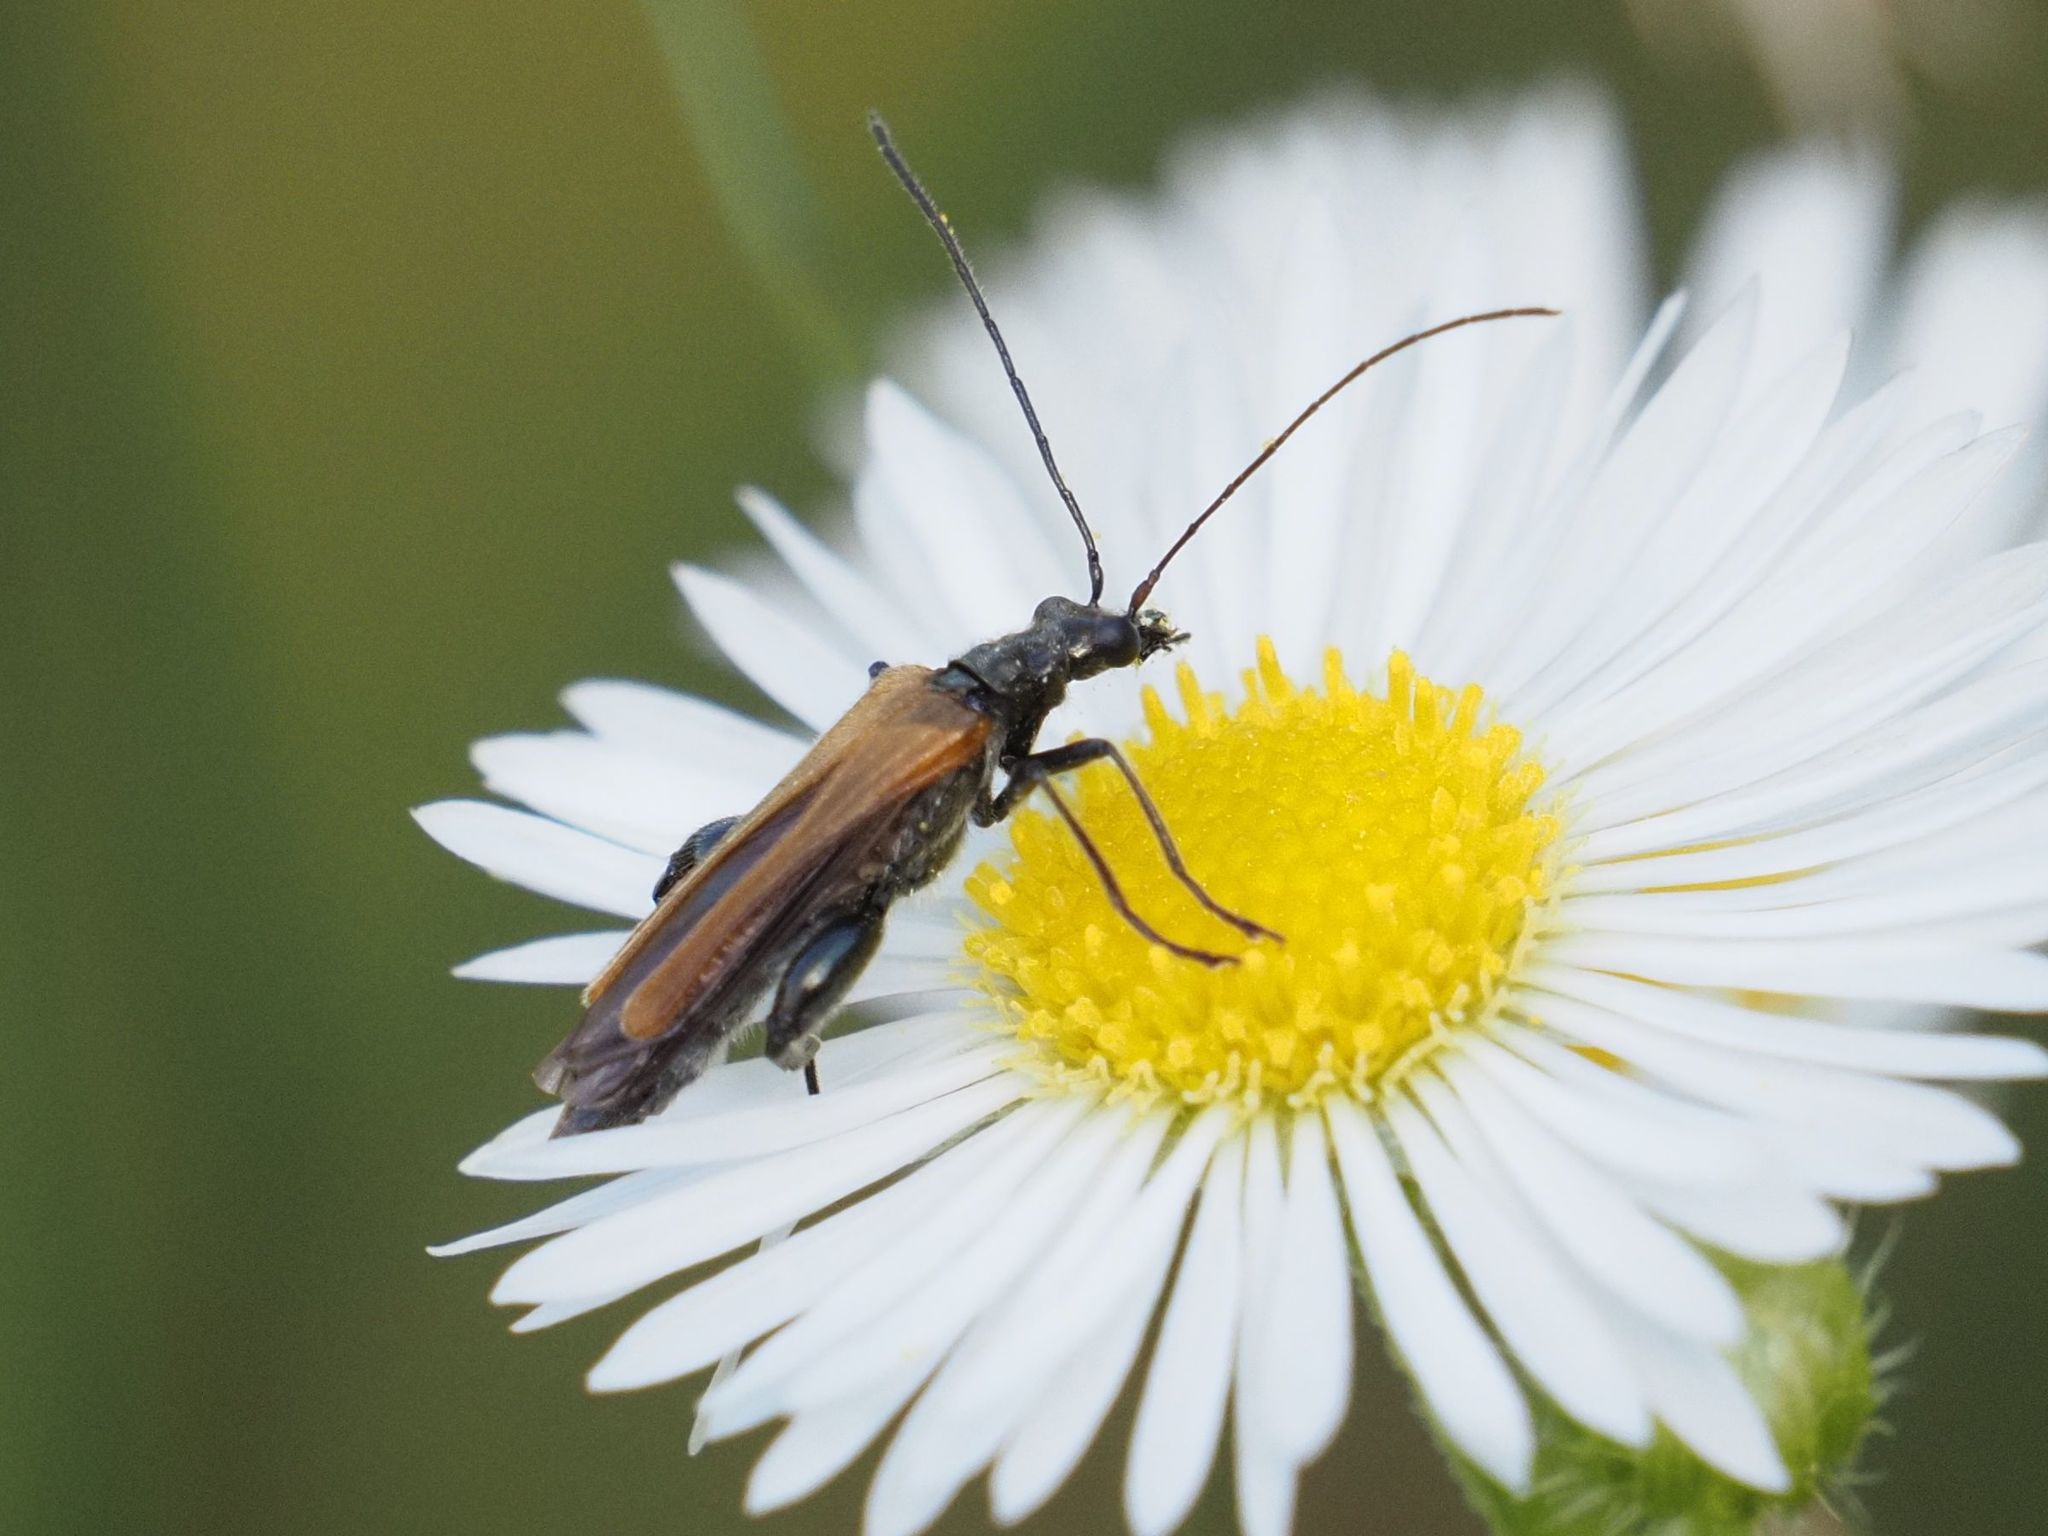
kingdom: Animalia
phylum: Arthropoda
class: Insecta
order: Coleoptera
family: Oedemeridae
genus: Oedemera
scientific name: Oedemera femorata
